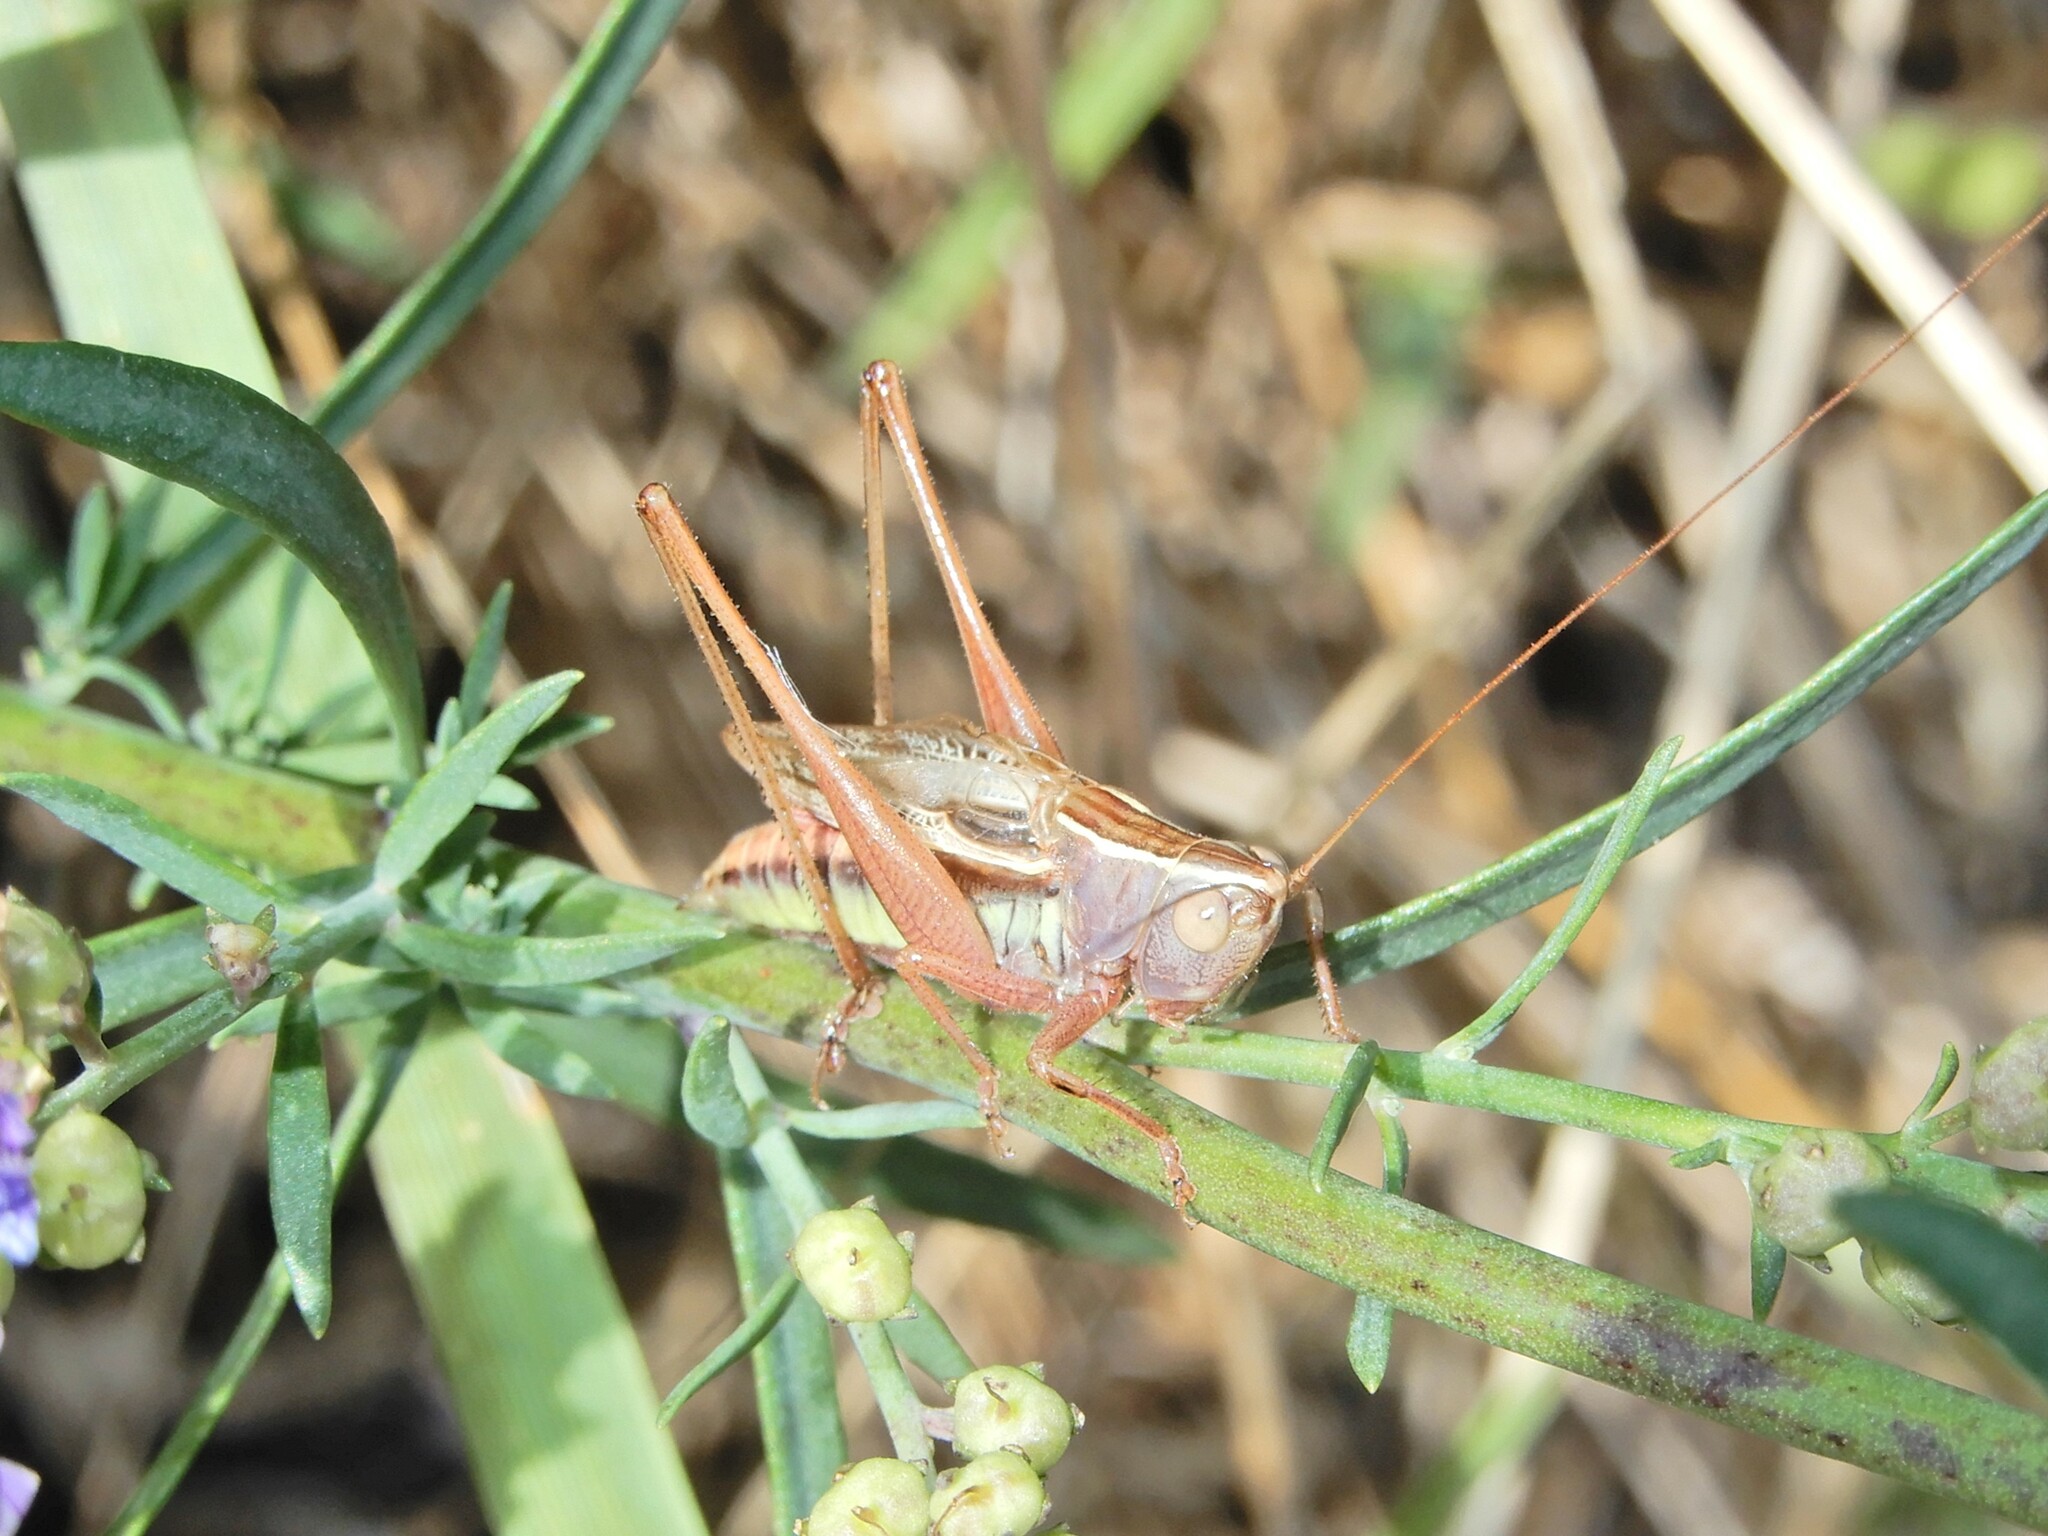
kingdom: Animalia
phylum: Arthropoda
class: Insecta
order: Orthoptera
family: Tettigoniidae
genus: Conocephalus
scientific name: Conocephalus albescens
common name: Whitish meadow katydid
